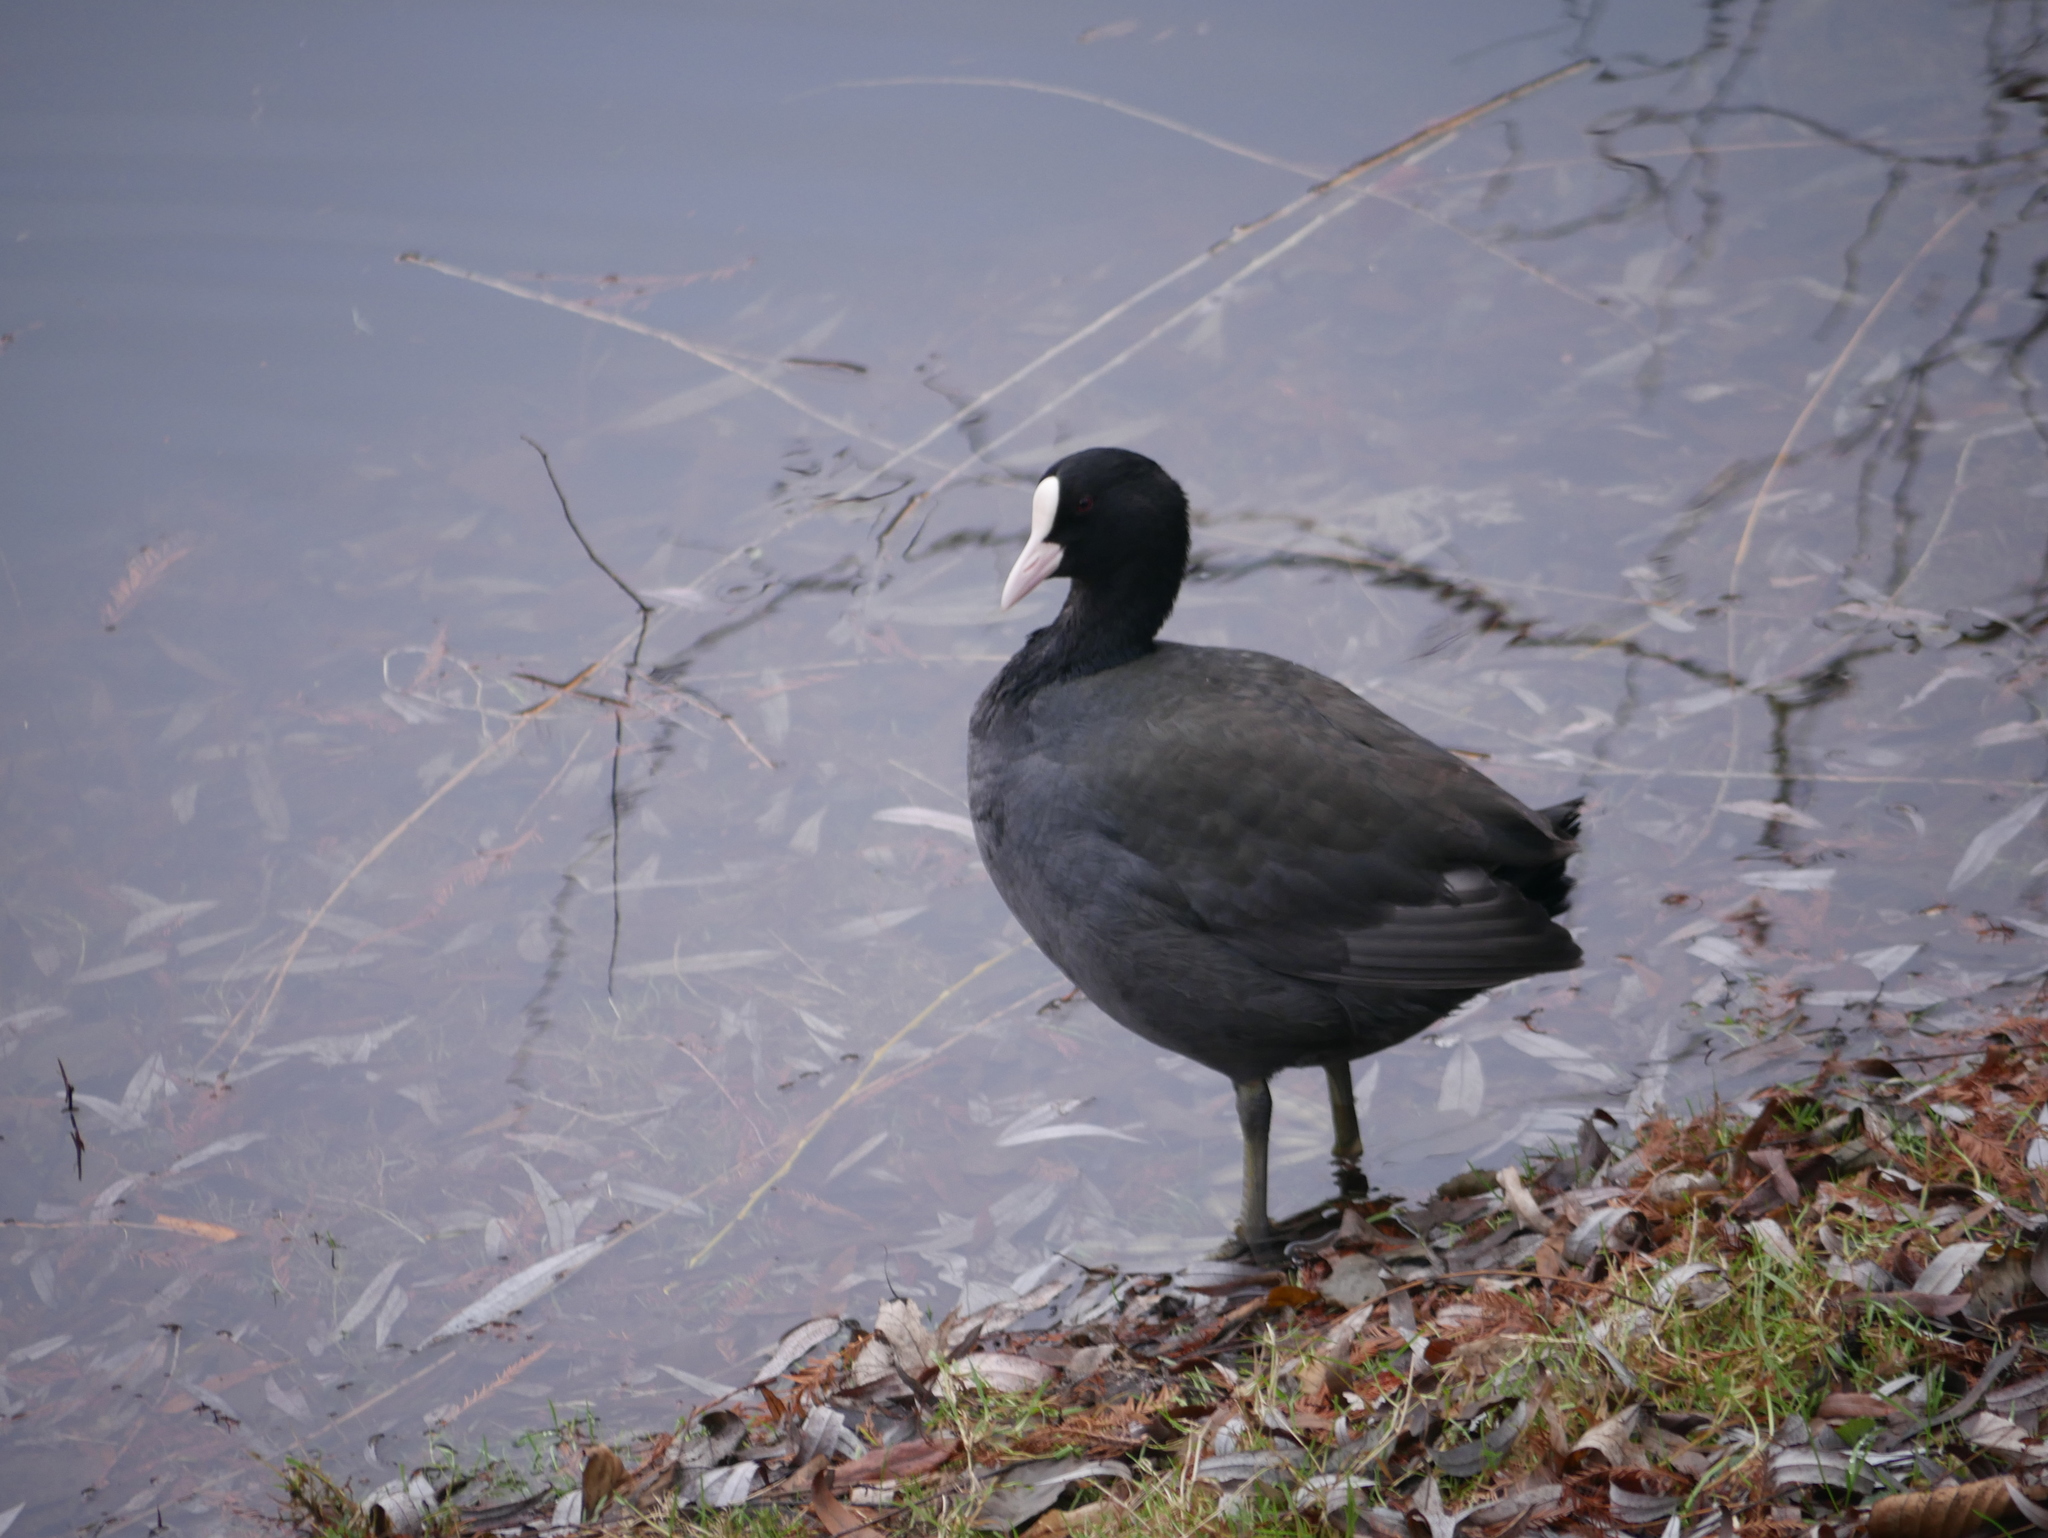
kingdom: Animalia
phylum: Chordata
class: Aves
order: Gruiformes
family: Rallidae
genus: Fulica
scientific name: Fulica atra
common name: Eurasian coot
